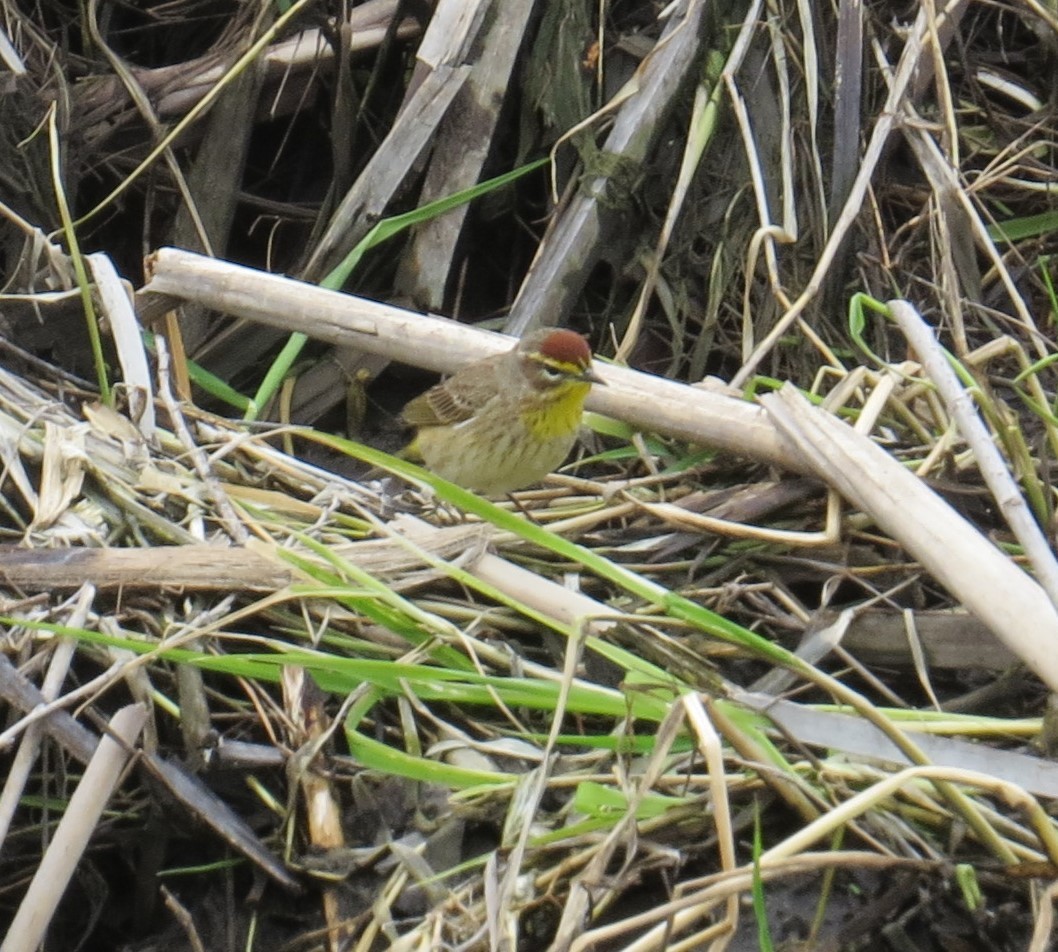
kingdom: Animalia
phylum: Chordata
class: Aves
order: Passeriformes
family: Parulidae
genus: Setophaga
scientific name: Setophaga palmarum
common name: Palm warbler
